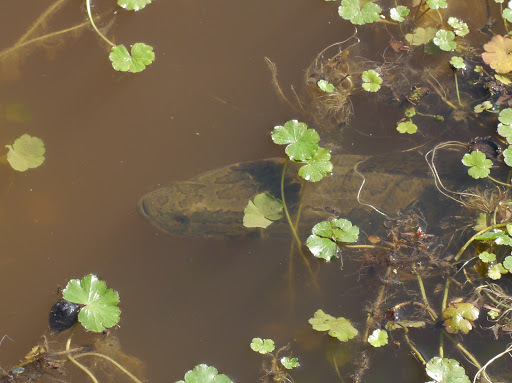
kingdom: Animalia
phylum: Chordata
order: Perciformes
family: Channidae
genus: Channa
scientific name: Channa argus
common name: Northern snakehead
